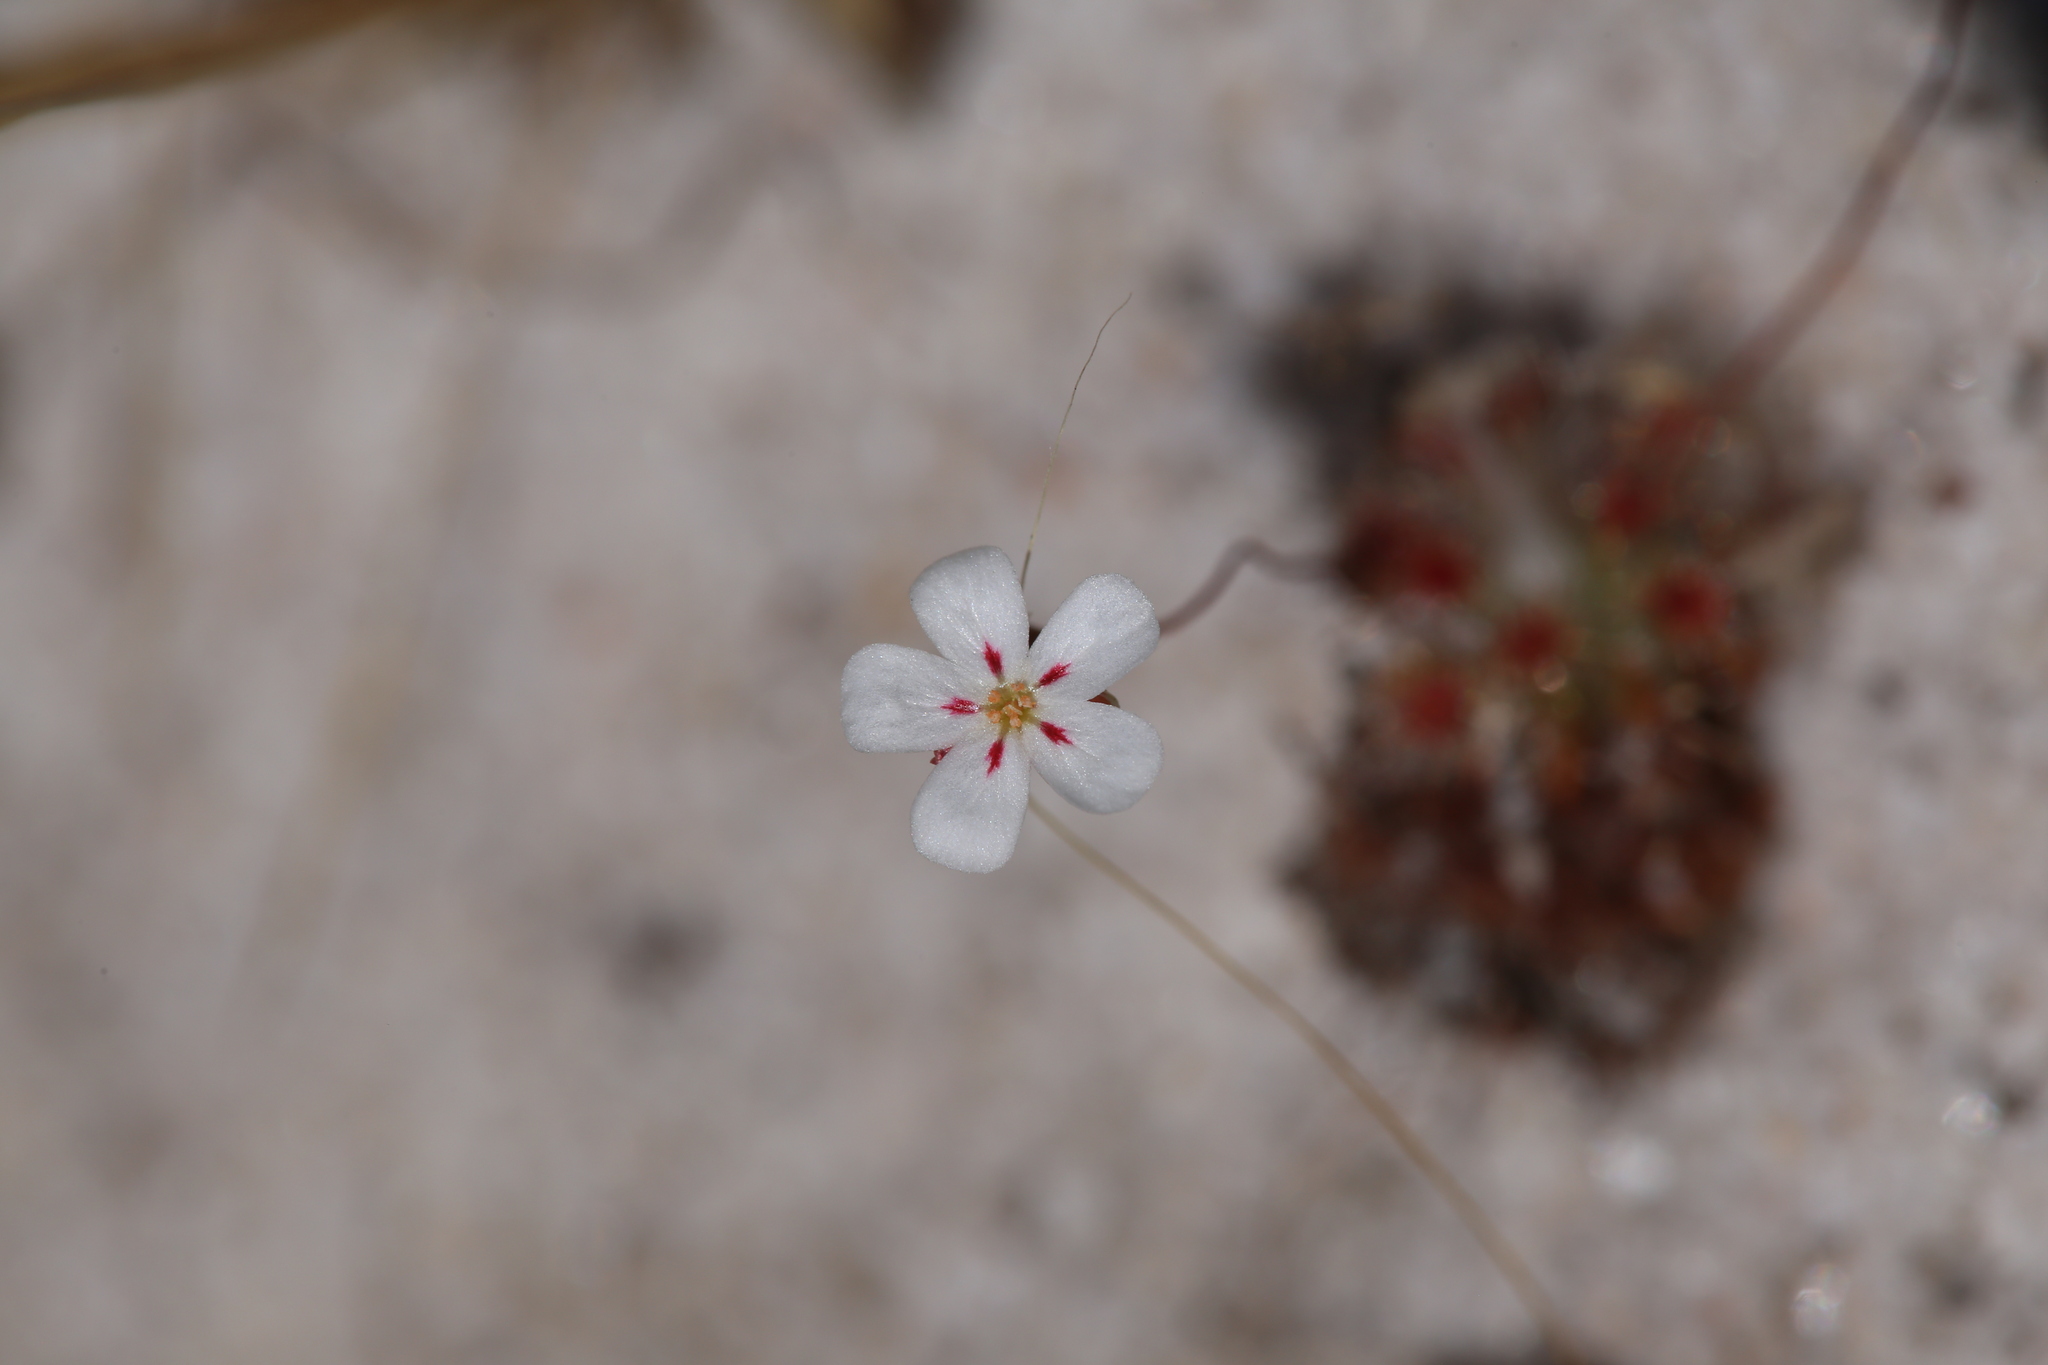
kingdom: Plantae
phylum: Tracheophyta
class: Magnoliopsida
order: Caryophyllales
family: Droseraceae
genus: Drosera
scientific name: Drosera paleacea
